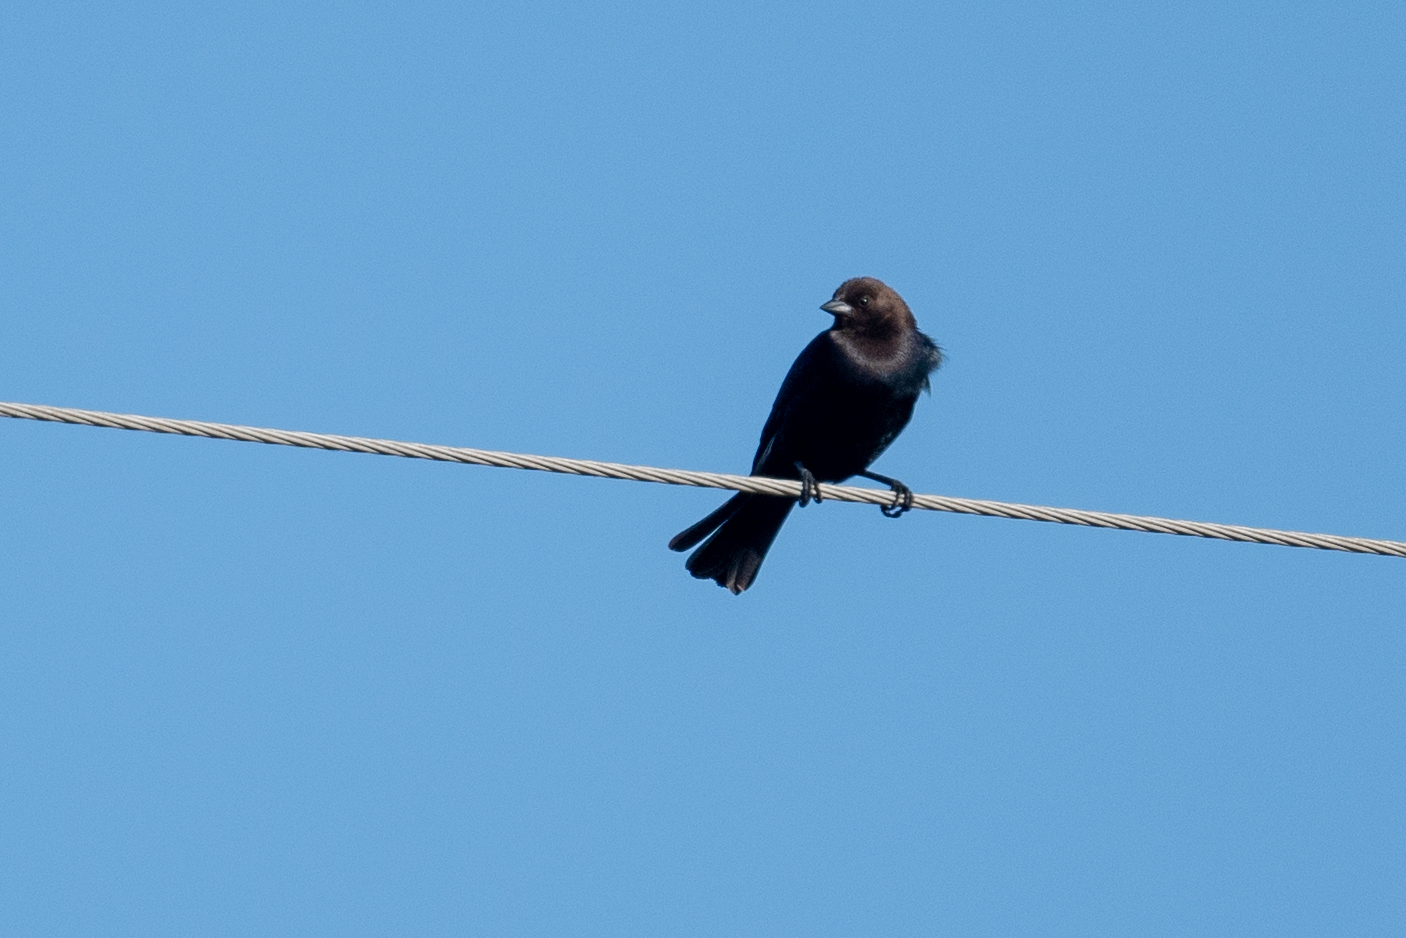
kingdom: Animalia
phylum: Chordata
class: Aves
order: Passeriformes
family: Icteridae
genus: Molothrus
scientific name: Molothrus ater
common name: Brown-headed cowbird
